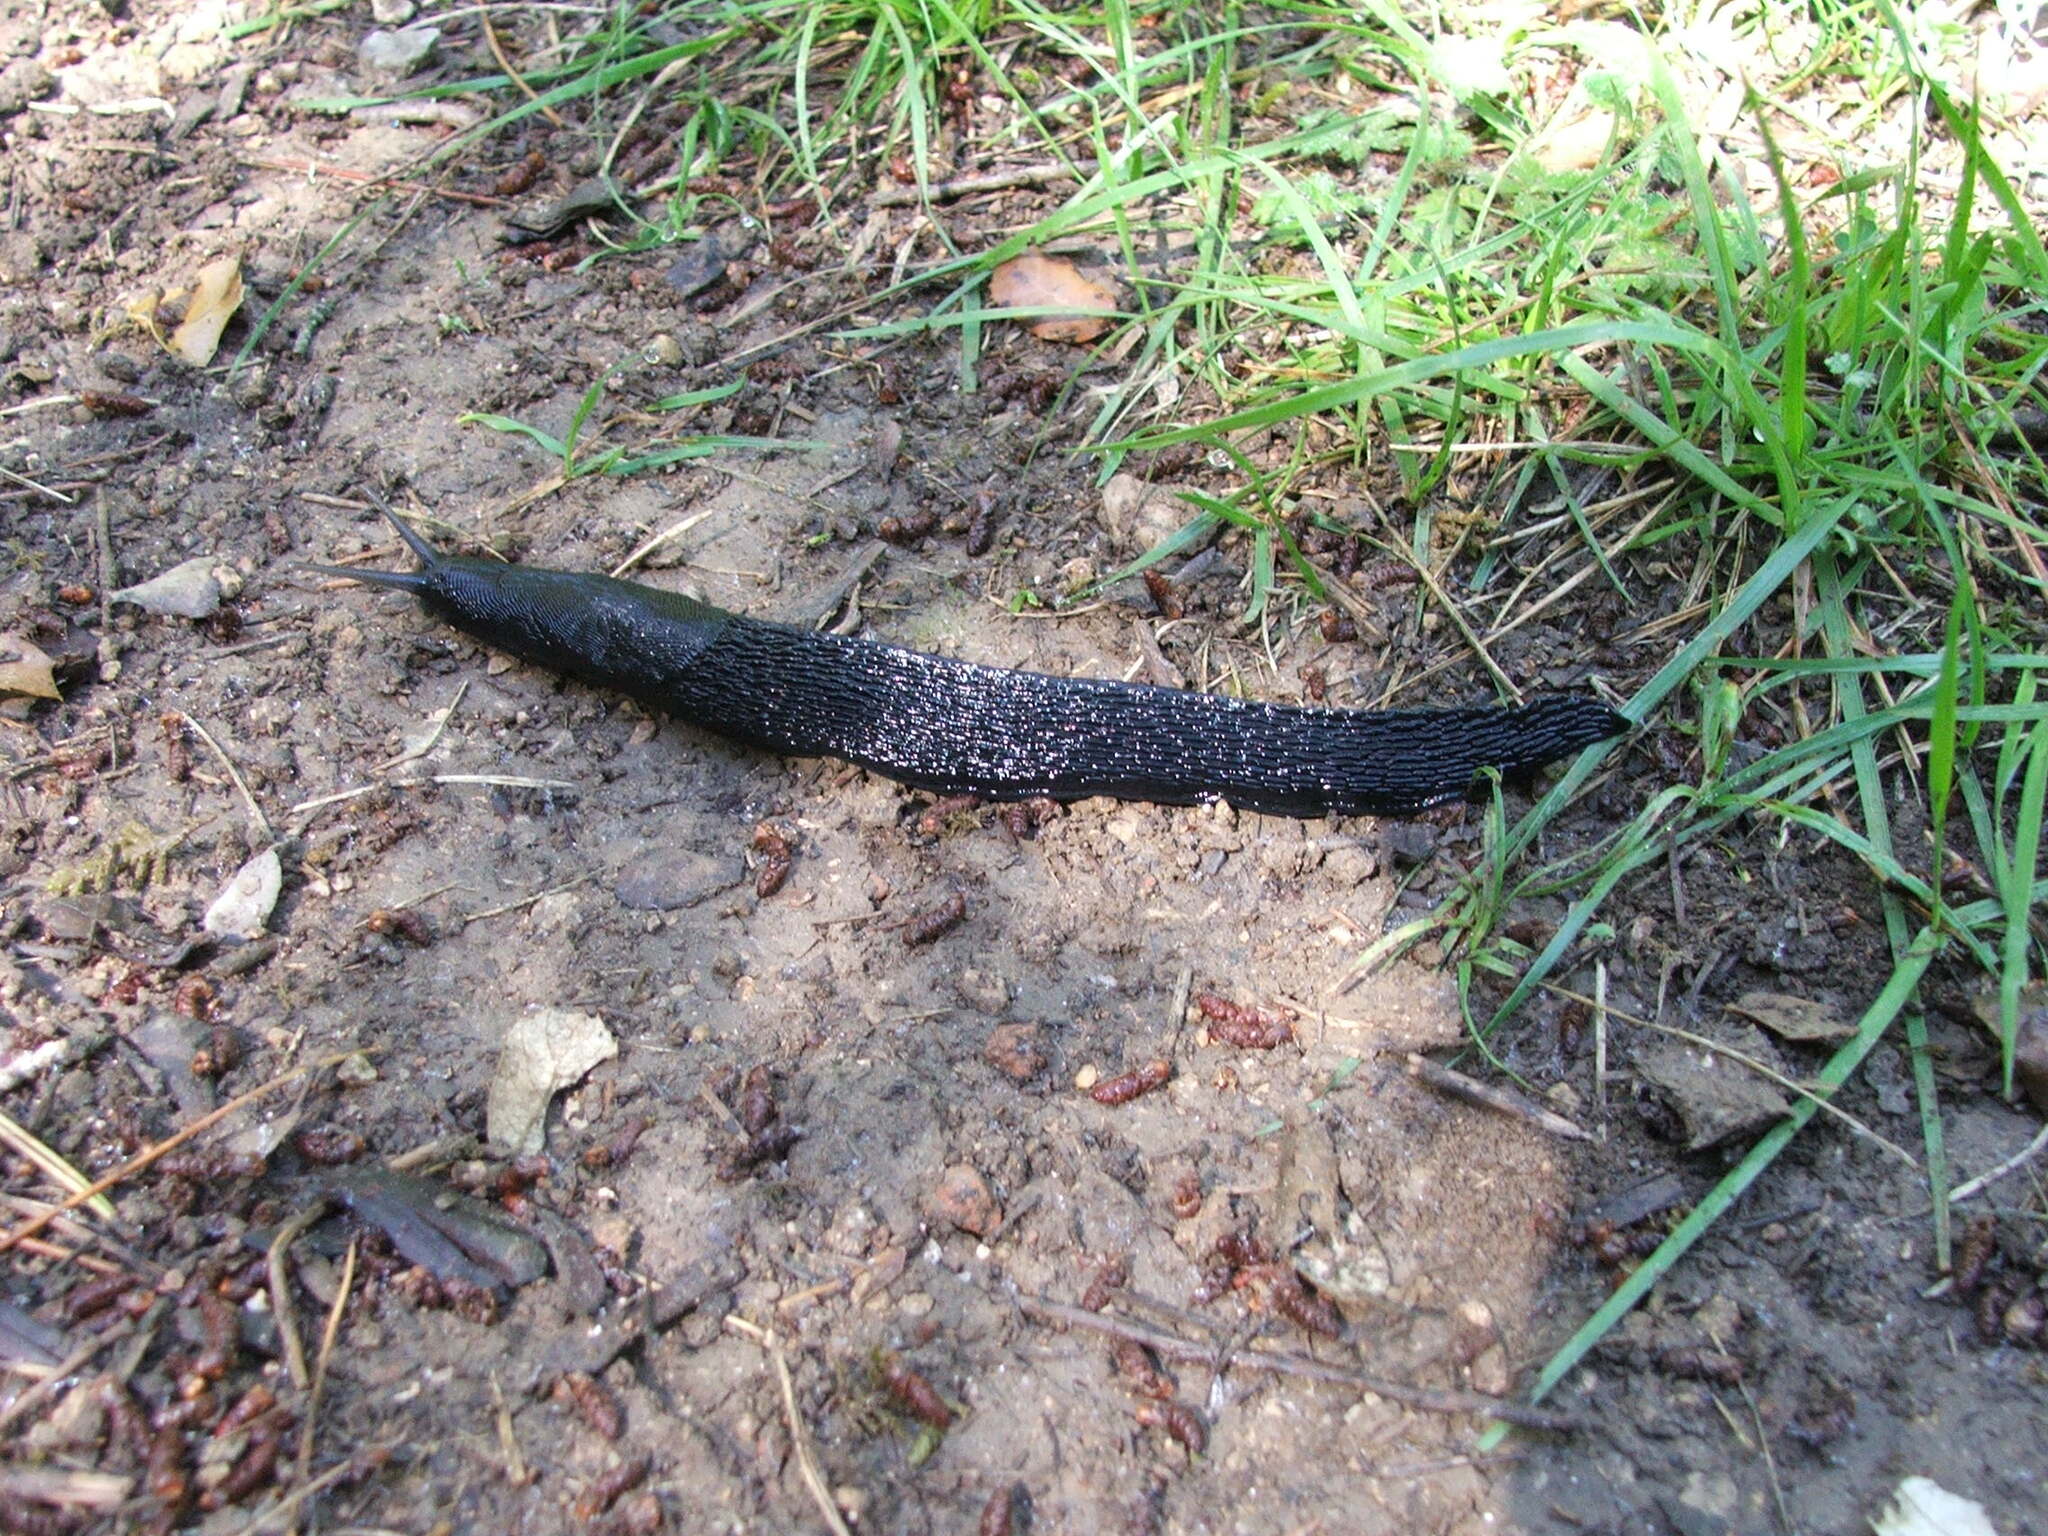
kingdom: Animalia
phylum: Mollusca
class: Gastropoda
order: Stylommatophora
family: Limacidae
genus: Limax
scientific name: Limax cinereoniger
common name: Ash-black slug
